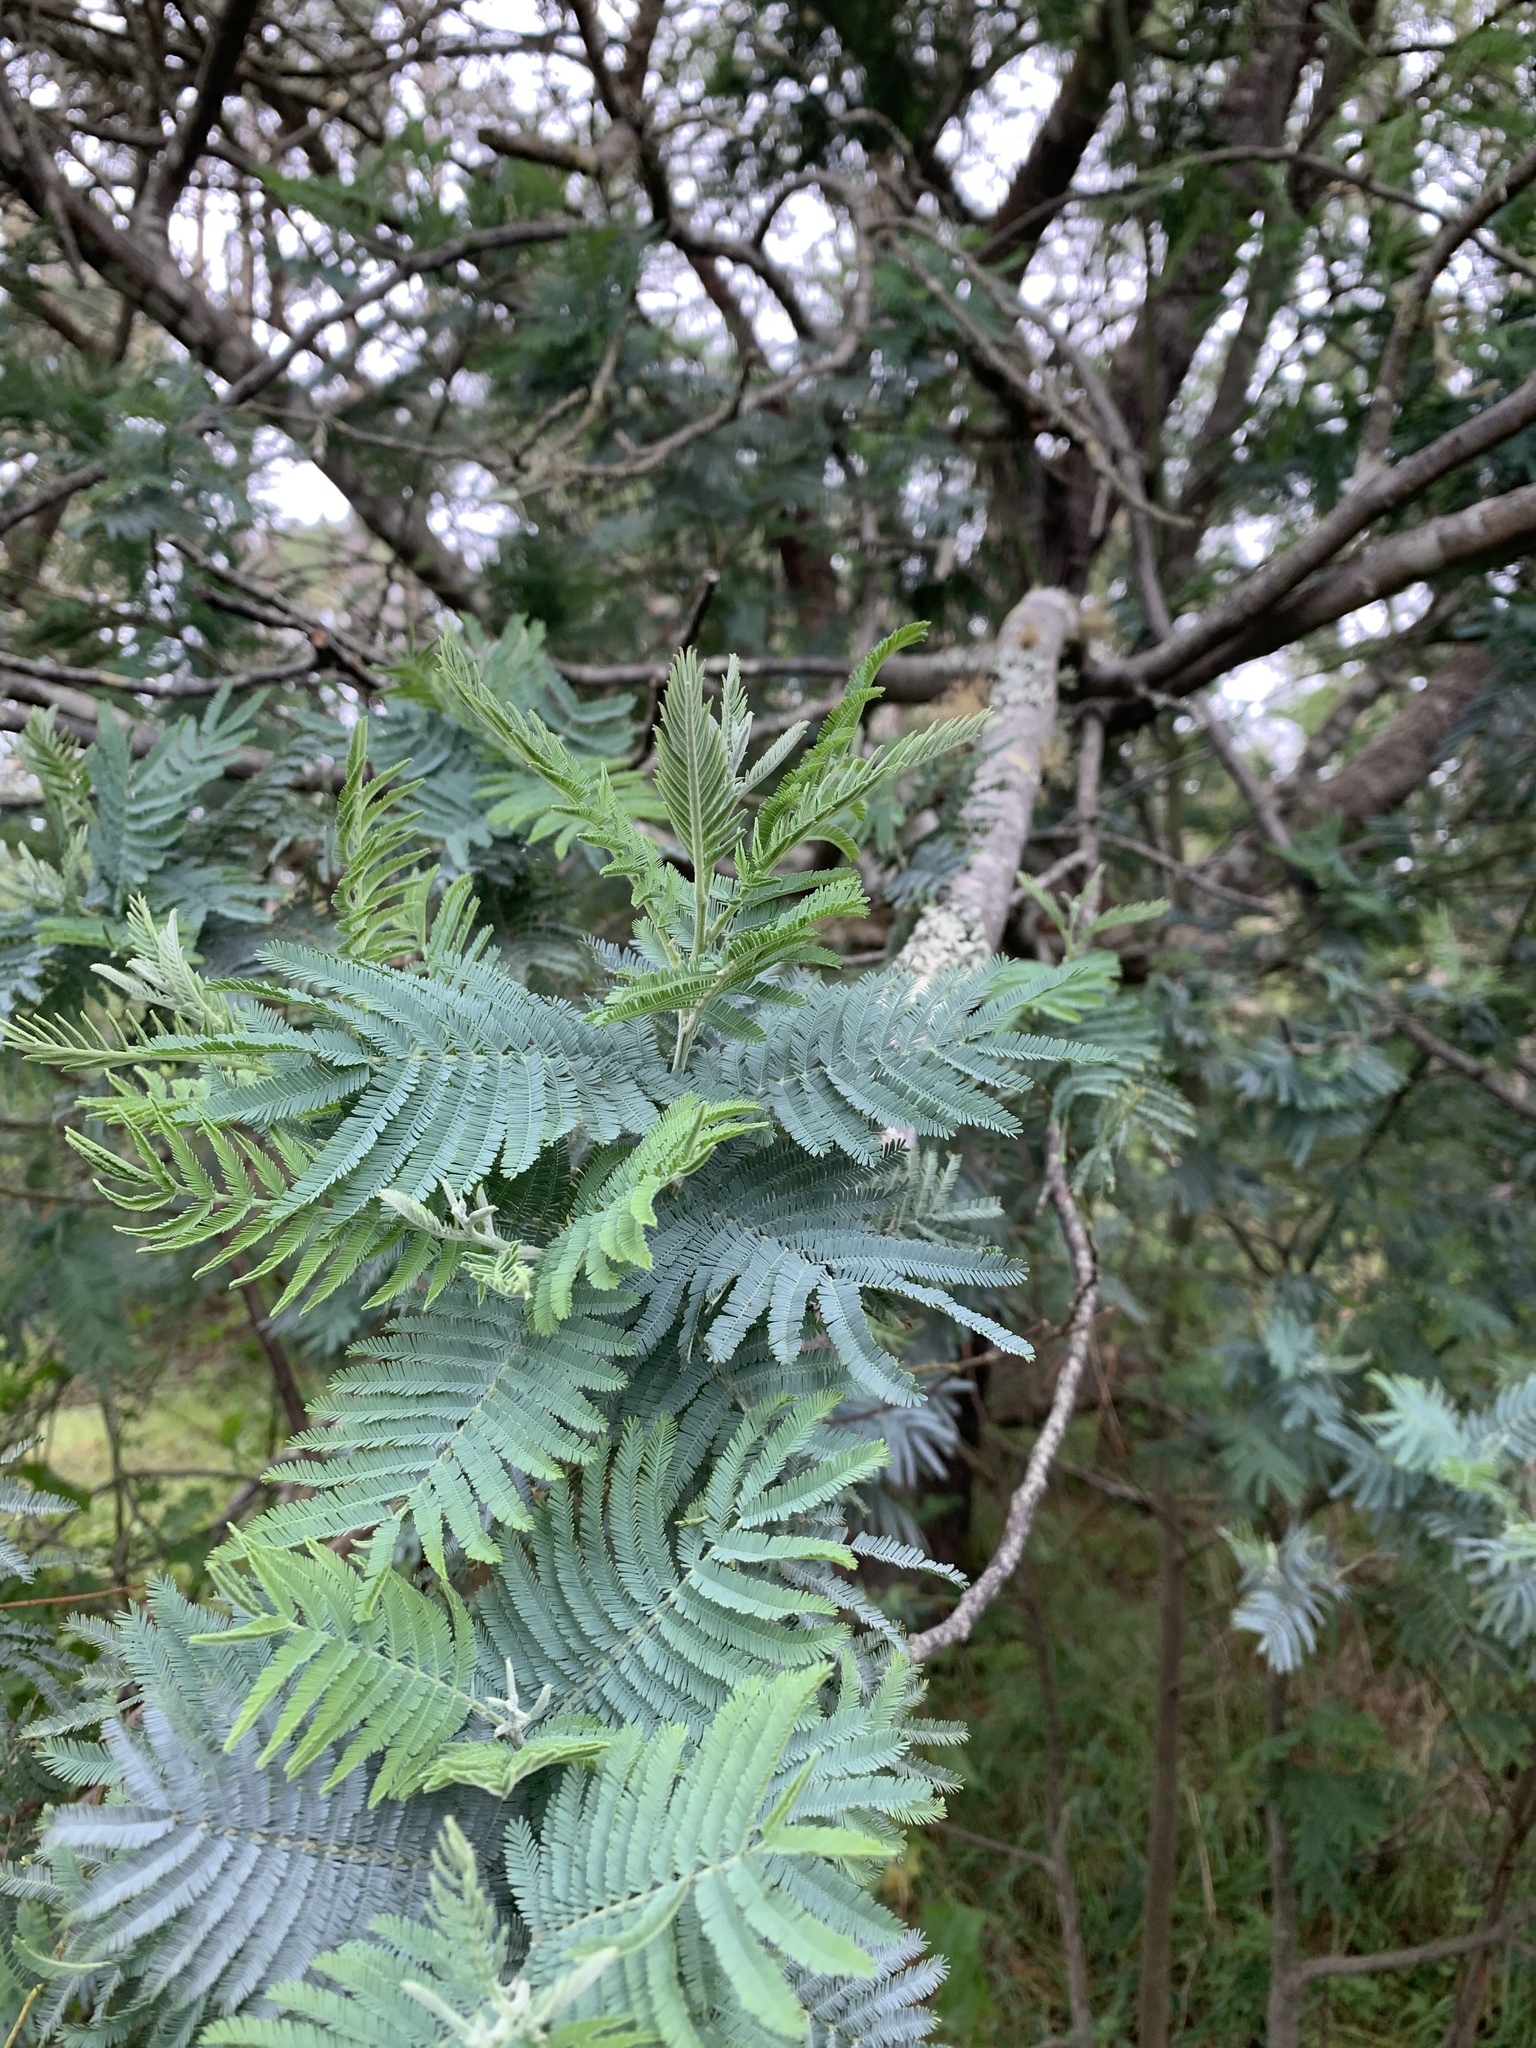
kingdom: Plantae
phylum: Tracheophyta
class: Magnoliopsida
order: Fabales
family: Fabaceae
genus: Acacia
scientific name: Acacia dealbata
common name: Silver wattle
